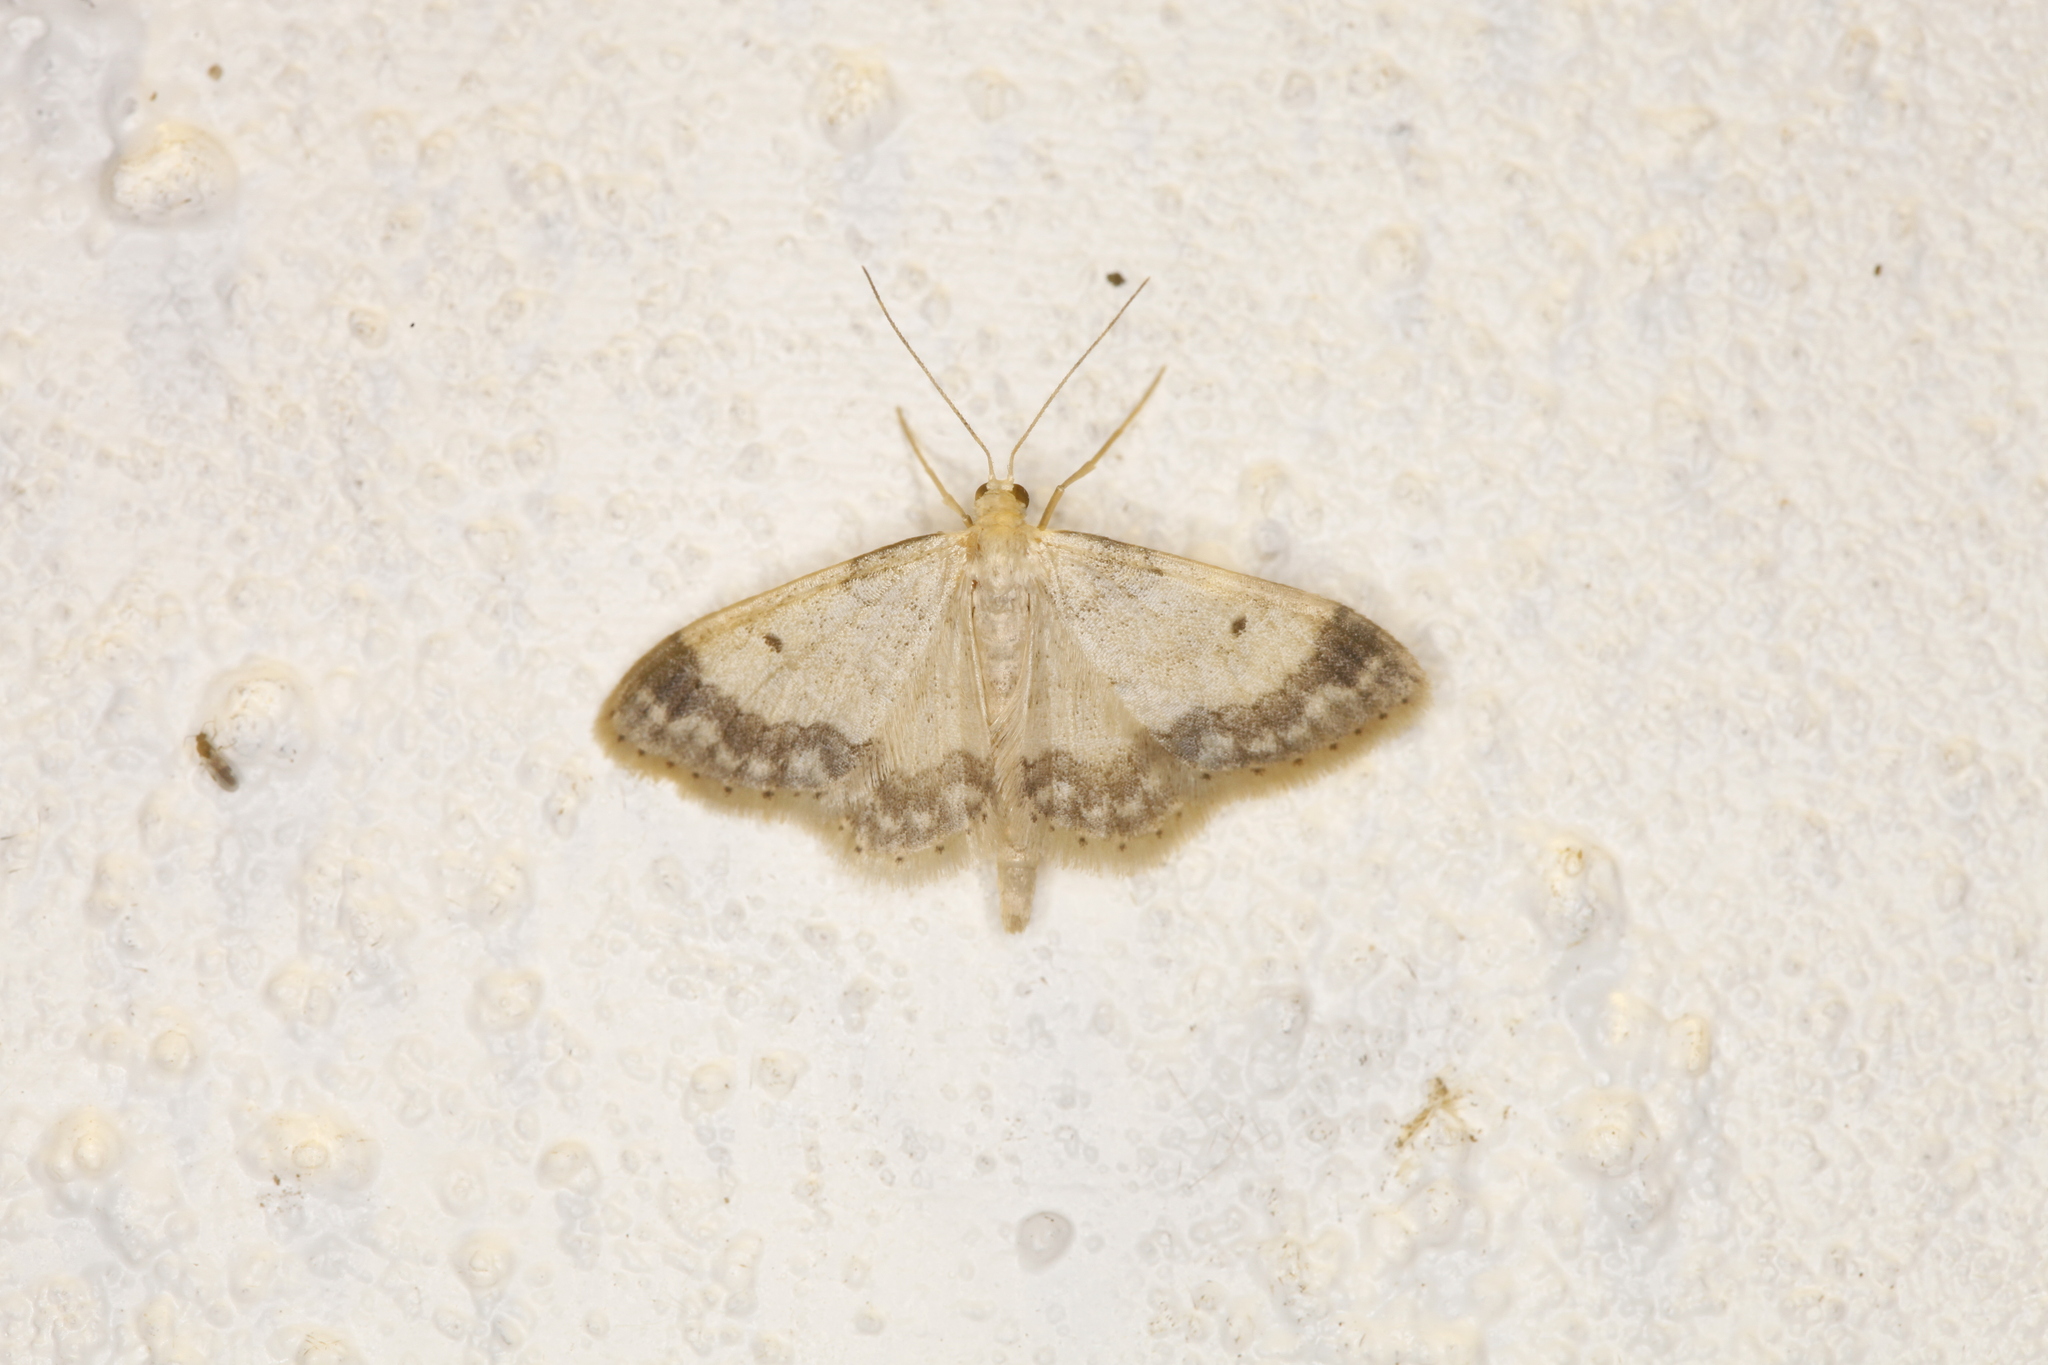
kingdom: Animalia
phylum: Arthropoda
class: Insecta
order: Lepidoptera
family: Geometridae
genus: Idaea
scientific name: Idaea biselata
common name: Small fan-footed wave
